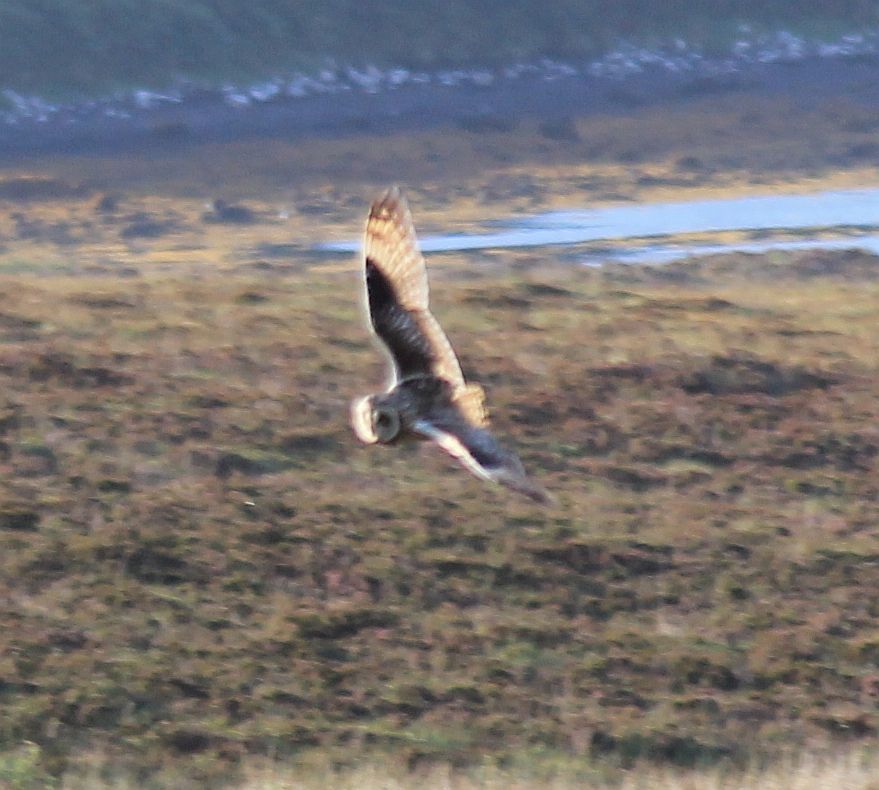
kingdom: Animalia
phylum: Chordata
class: Aves
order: Strigiformes
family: Strigidae
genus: Asio
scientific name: Asio flammeus
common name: Short-eared owl
